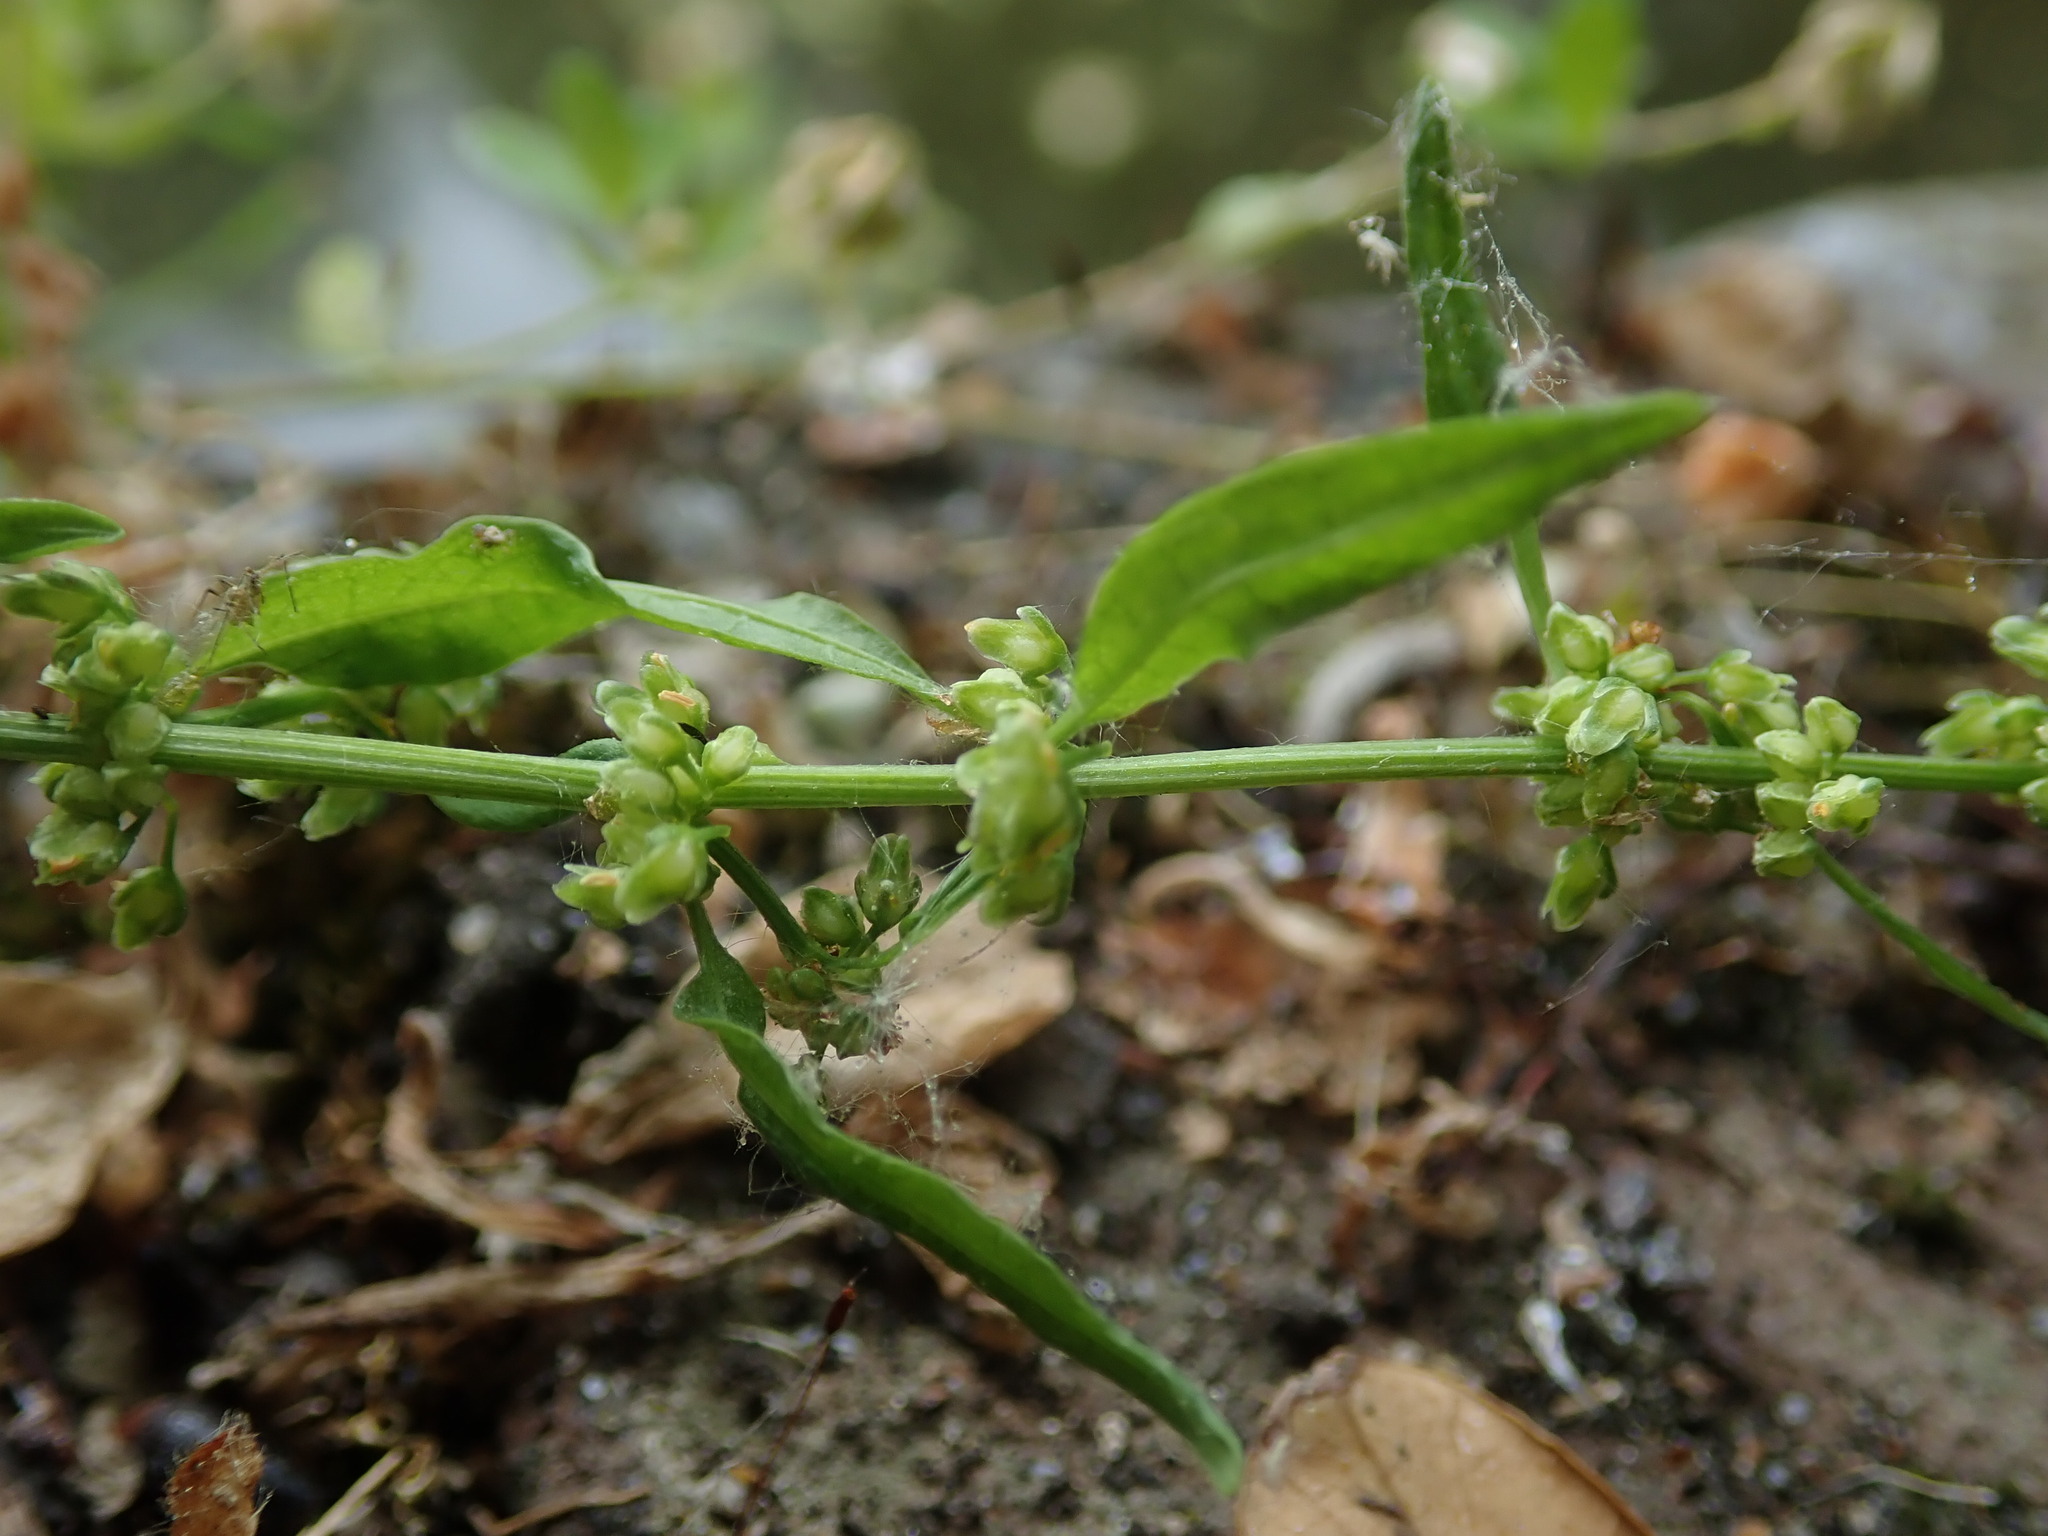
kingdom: Plantae
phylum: Tracheophyta
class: Magnoliopsida
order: Caryophyllales
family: Polygonaceae
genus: Rumex
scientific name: Rumex conglomeratus
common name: Clustered dock
